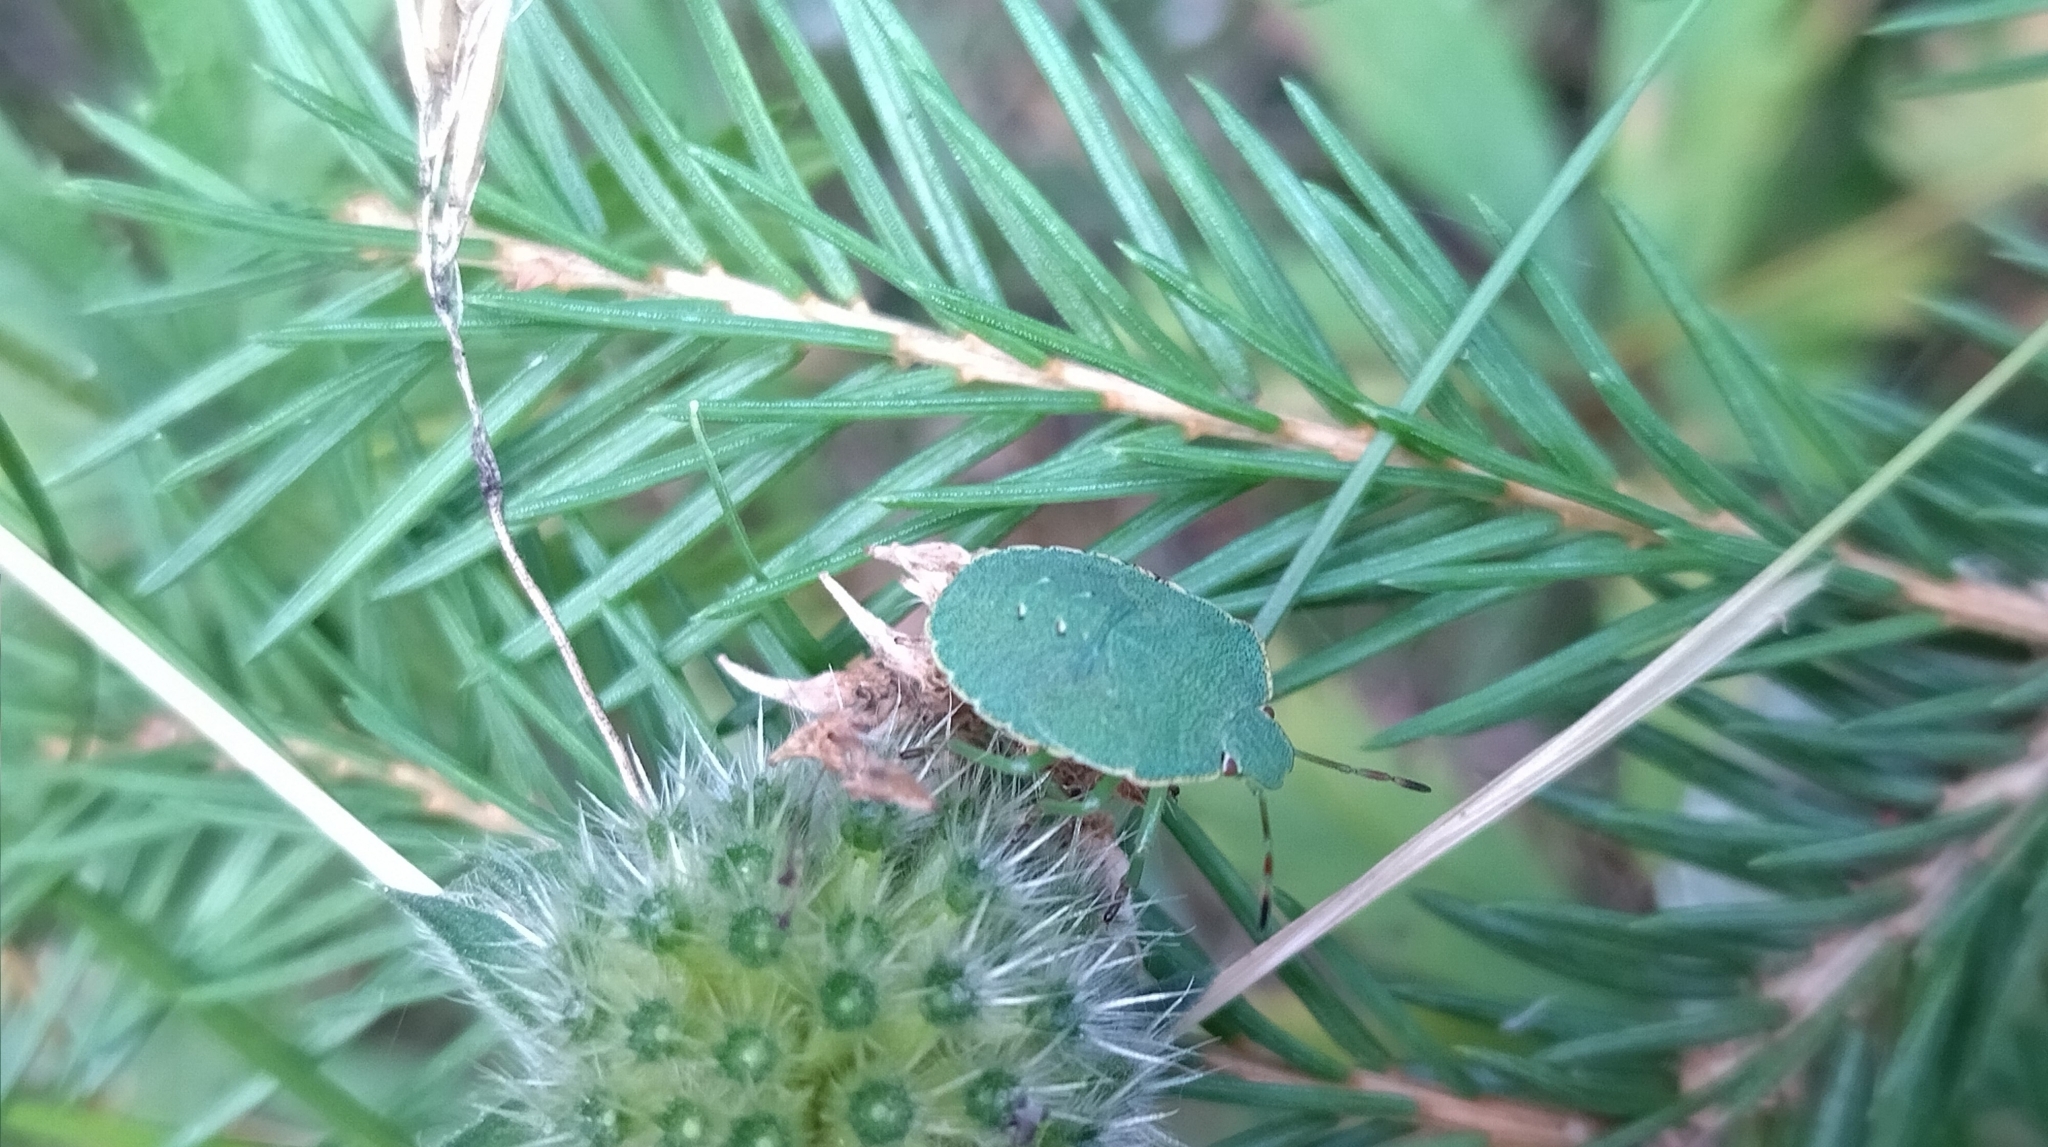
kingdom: Animalia
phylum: Arthropoda
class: Insecta
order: Hemiptera
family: Pentatomidae
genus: Palomena
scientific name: Palomena prasina
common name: Green shieldbug
